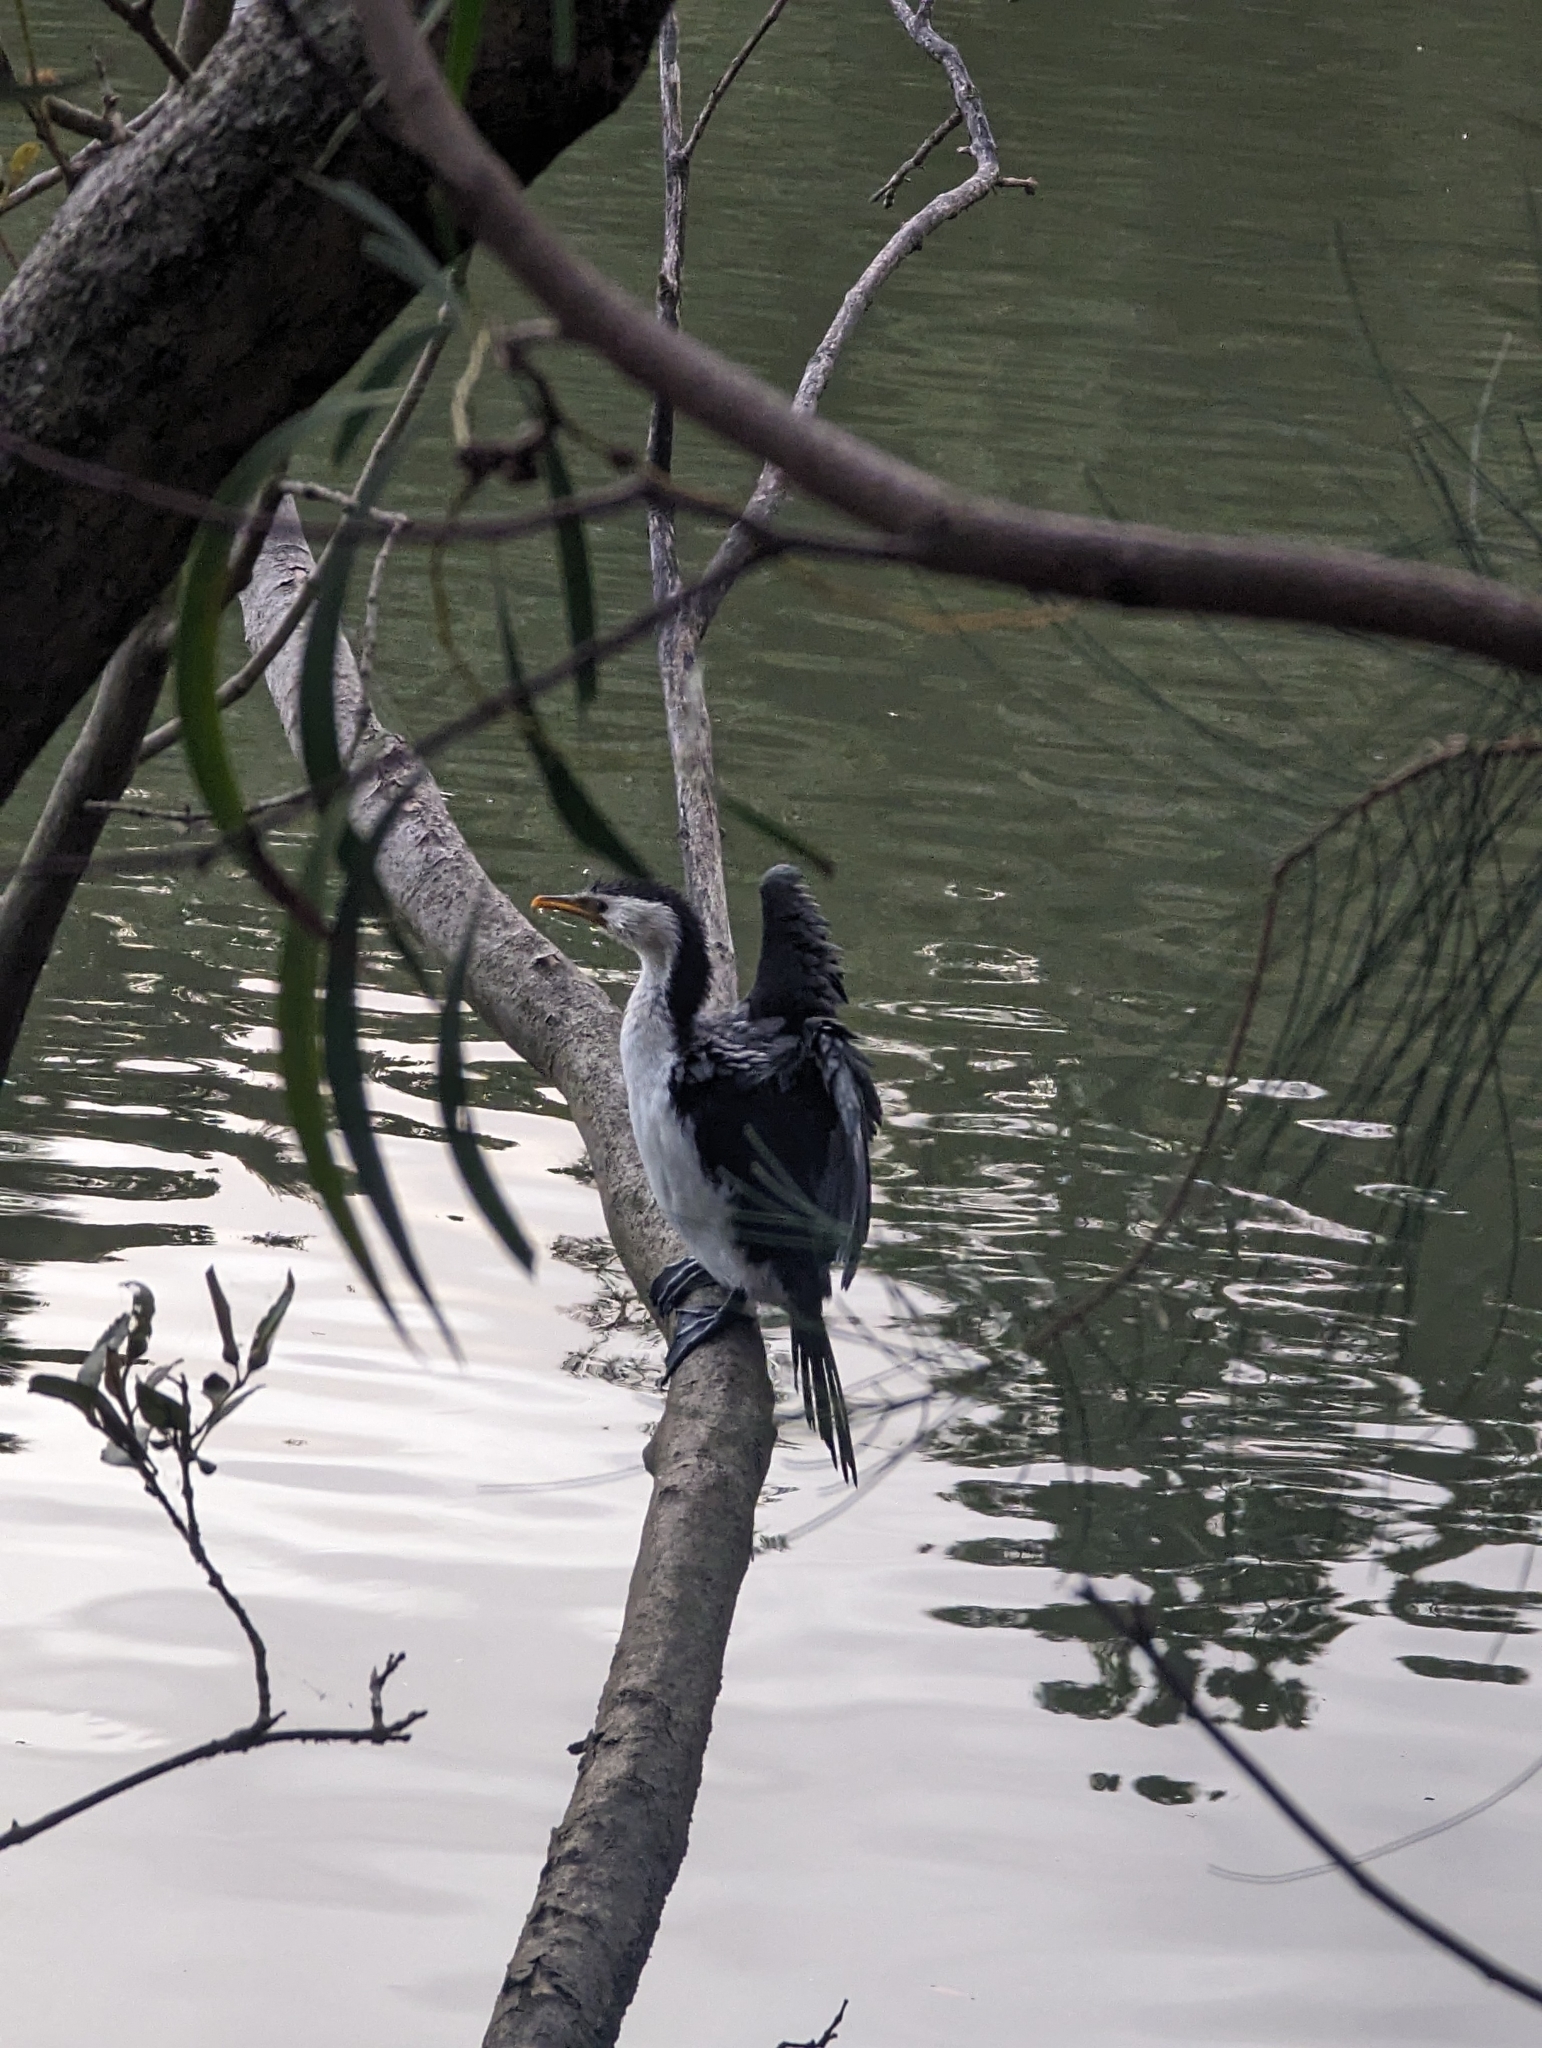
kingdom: Animalia
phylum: Chordata
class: Aves
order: Suliformes
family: Phalacrocoracidae
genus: Microcarbo
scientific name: Microcarbo melanoleucos
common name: Little pied cormorant
